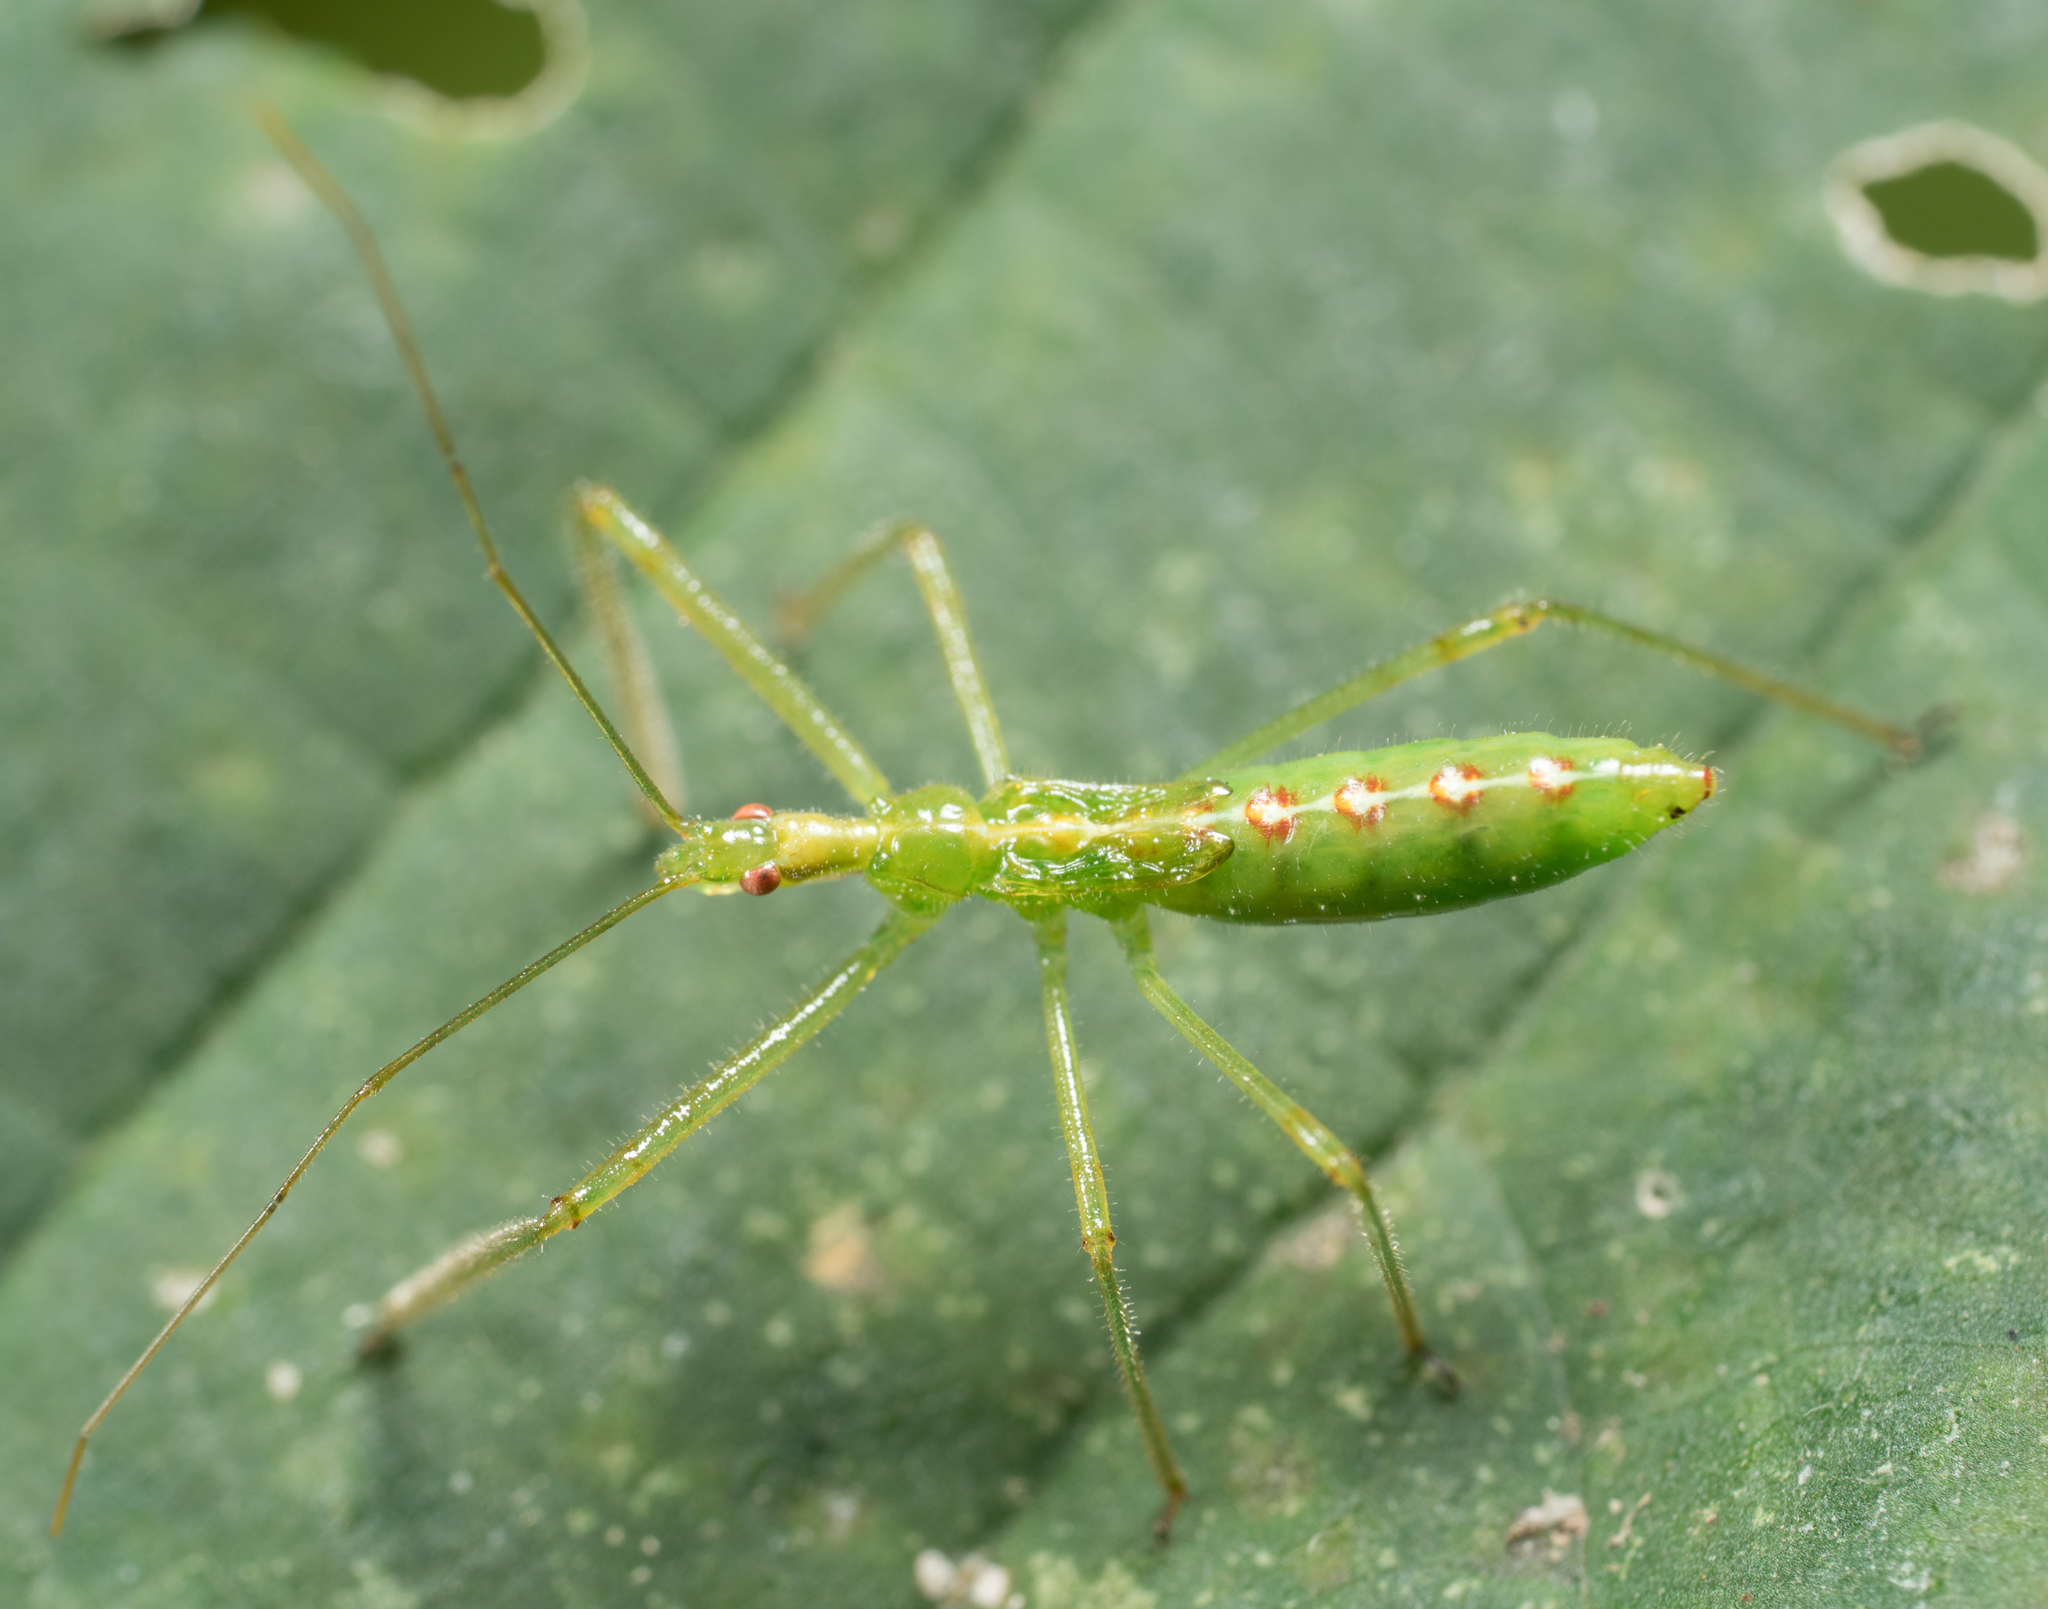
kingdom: Animalia
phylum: Arthropoda
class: Insecta
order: Hemiptera
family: Reduviidae
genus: Zelus
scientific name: Zelus luridus
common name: Pale green assassin bug
